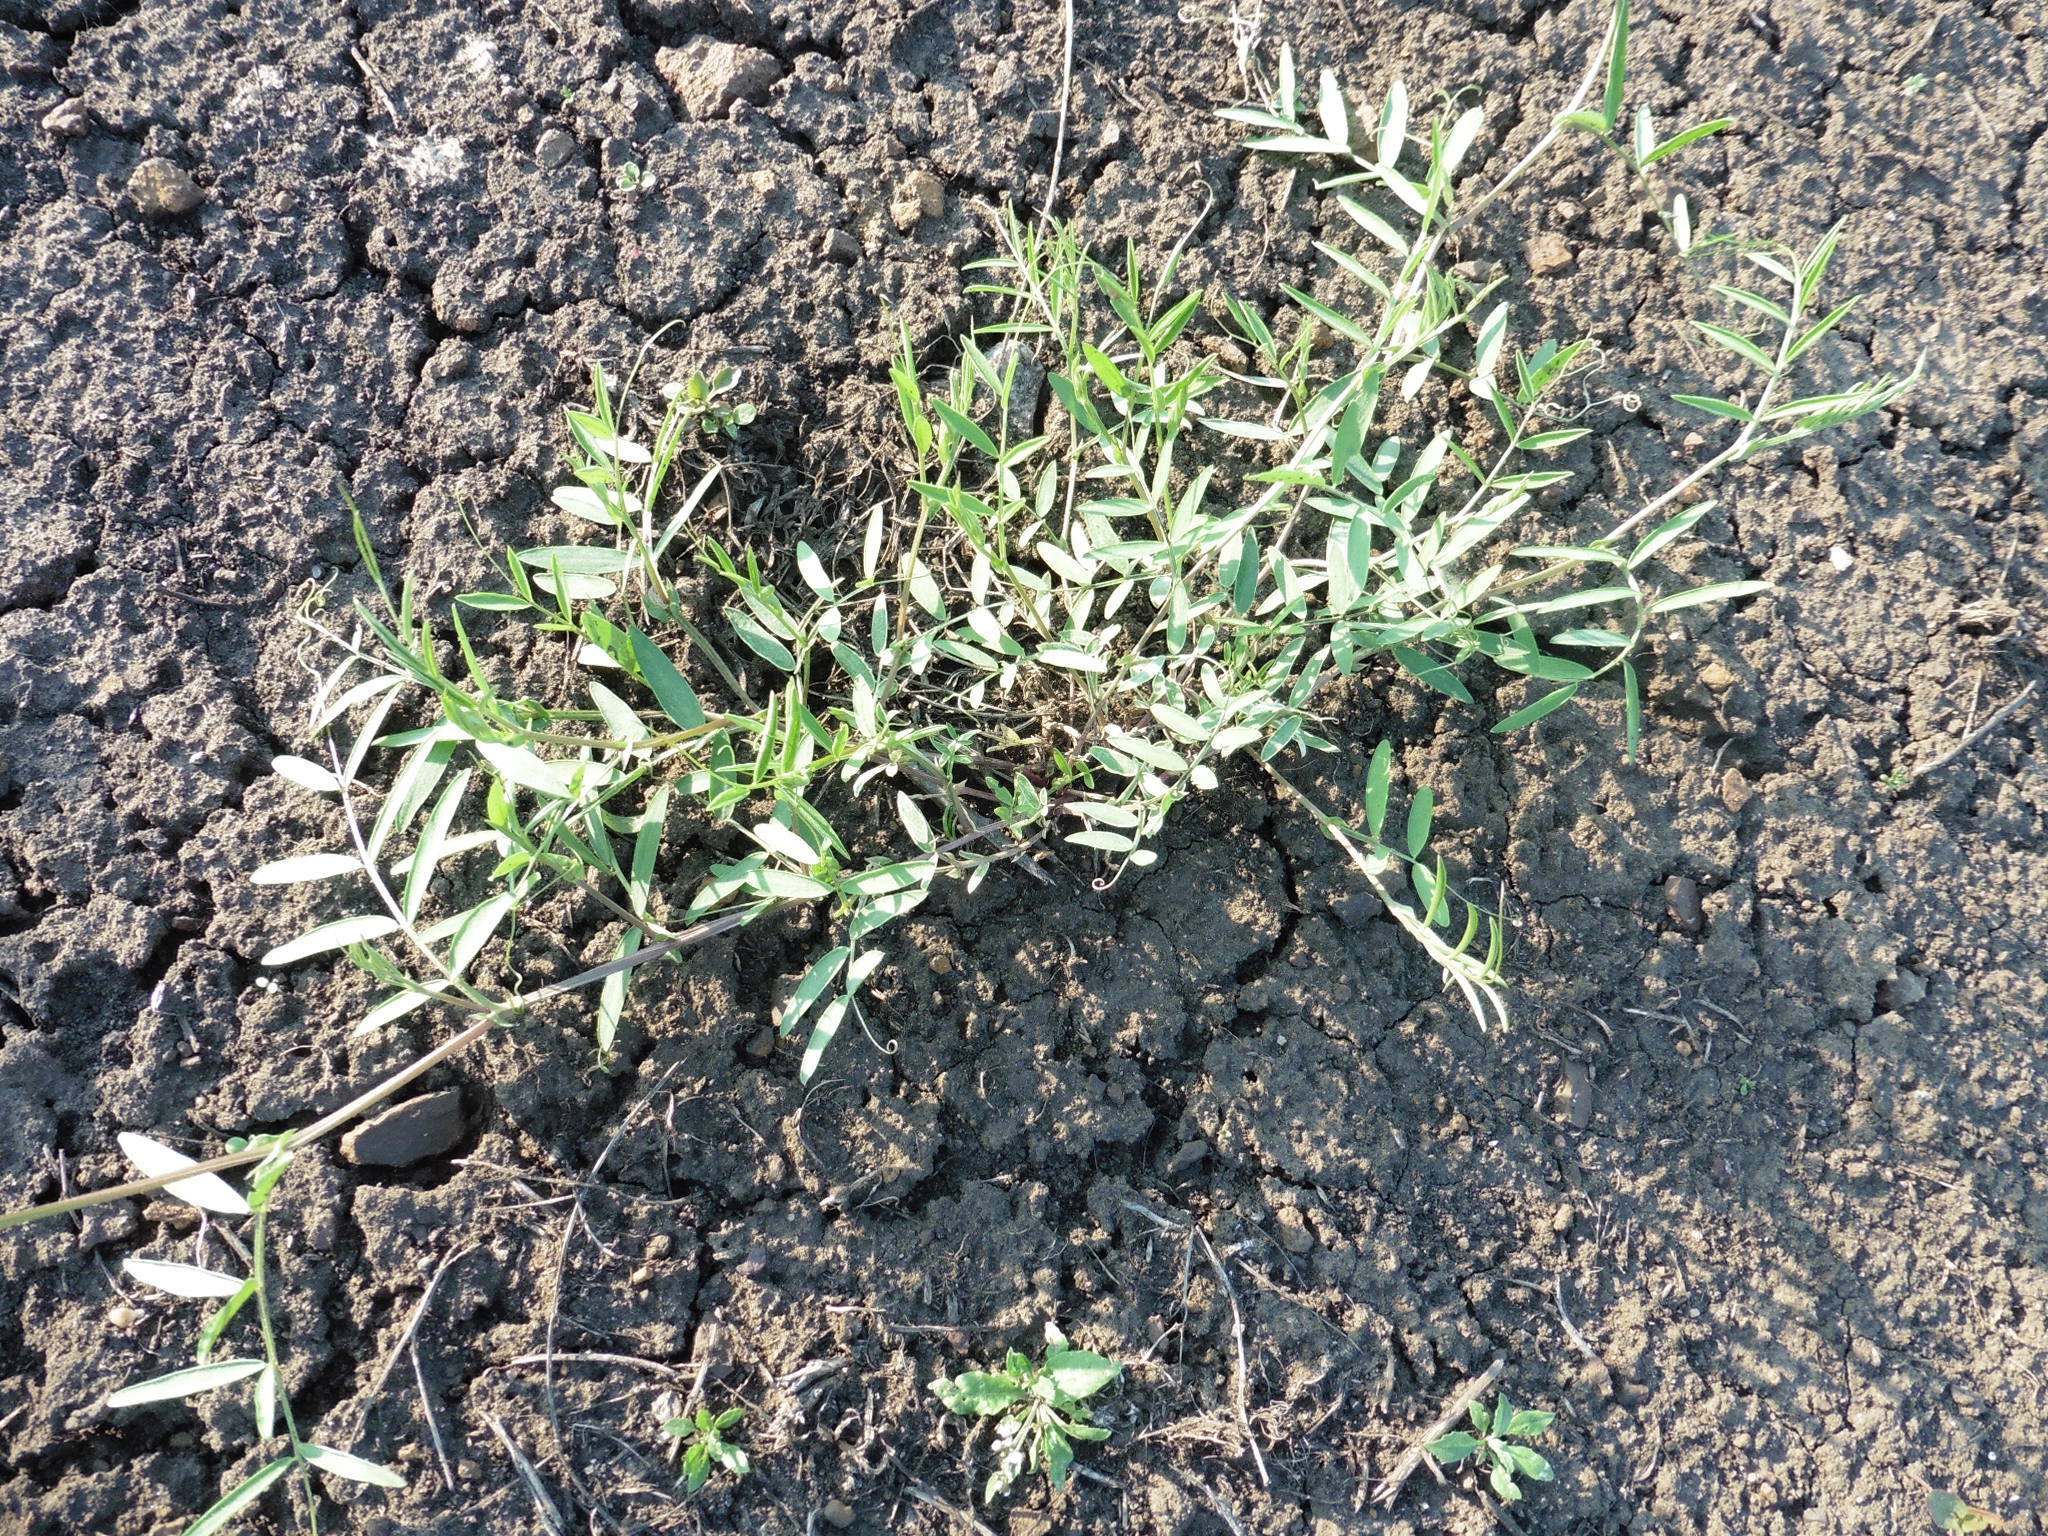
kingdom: Plantae
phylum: Tracheophyta
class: Magnoliopsida
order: Fabales
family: Fabaceae
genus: Vicia
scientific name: Vicia biennis
